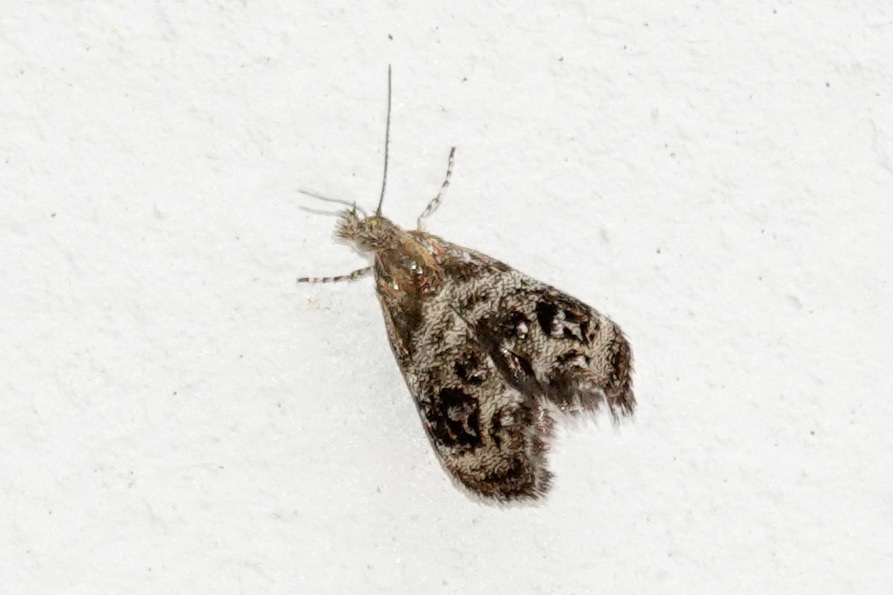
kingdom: Animalia
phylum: Arthropoda
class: Insecta
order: Lepidoptera
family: Choreutidae
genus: Tebenna
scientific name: Tebenna gnaphaliella
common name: Everlasting tebenna moth
